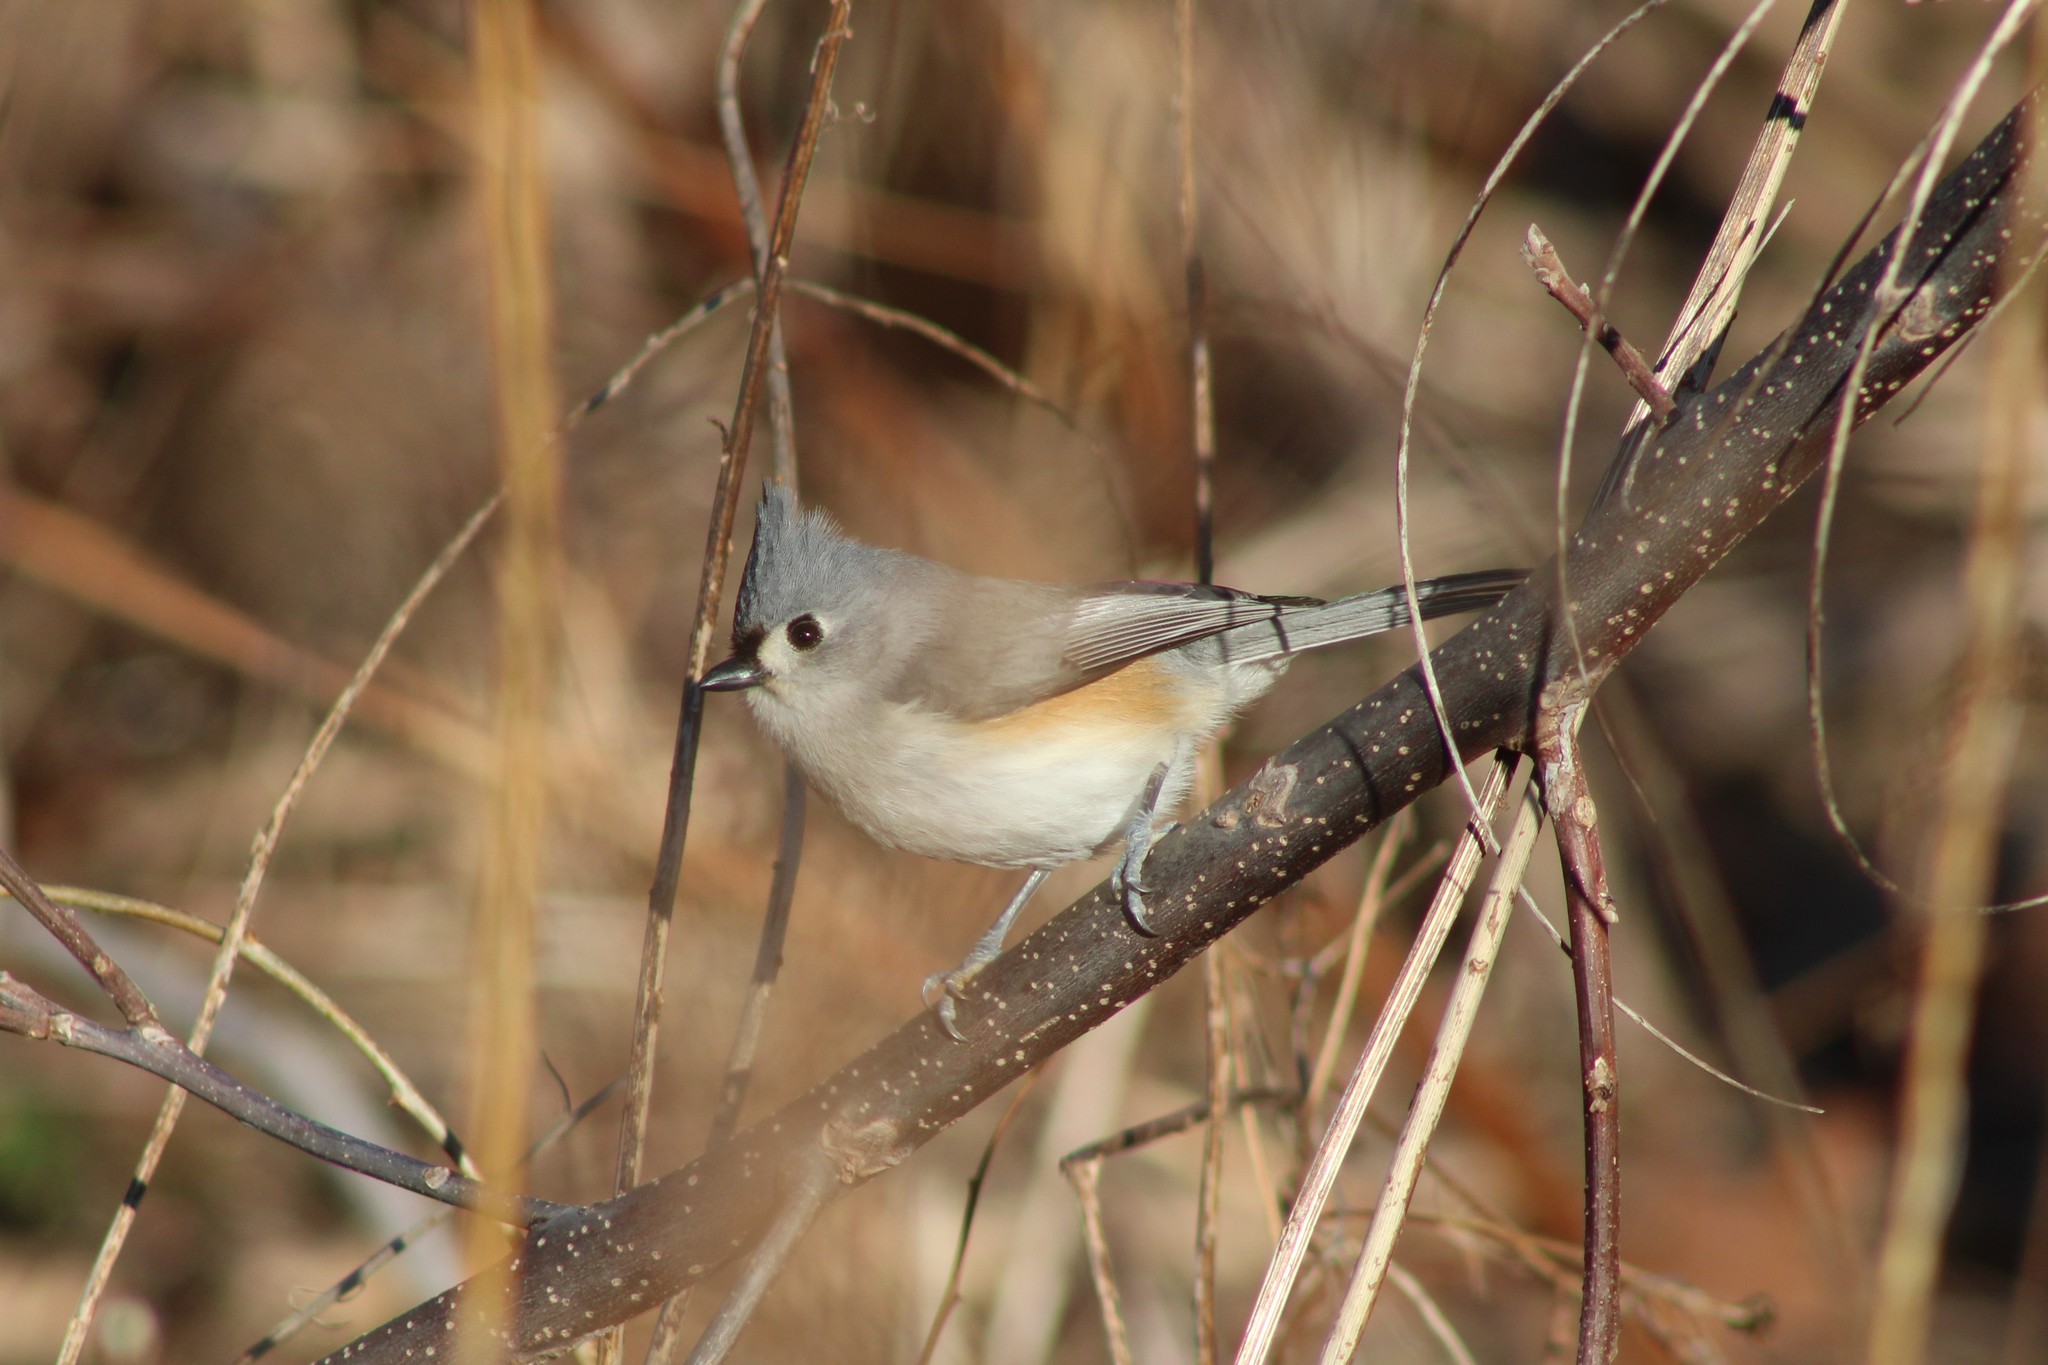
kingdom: Animalia
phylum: Chordata
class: Aves
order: Passeriformes
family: Paridae
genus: Baeolophus
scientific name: Baeolophus bicolor
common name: Tufted titmouse
